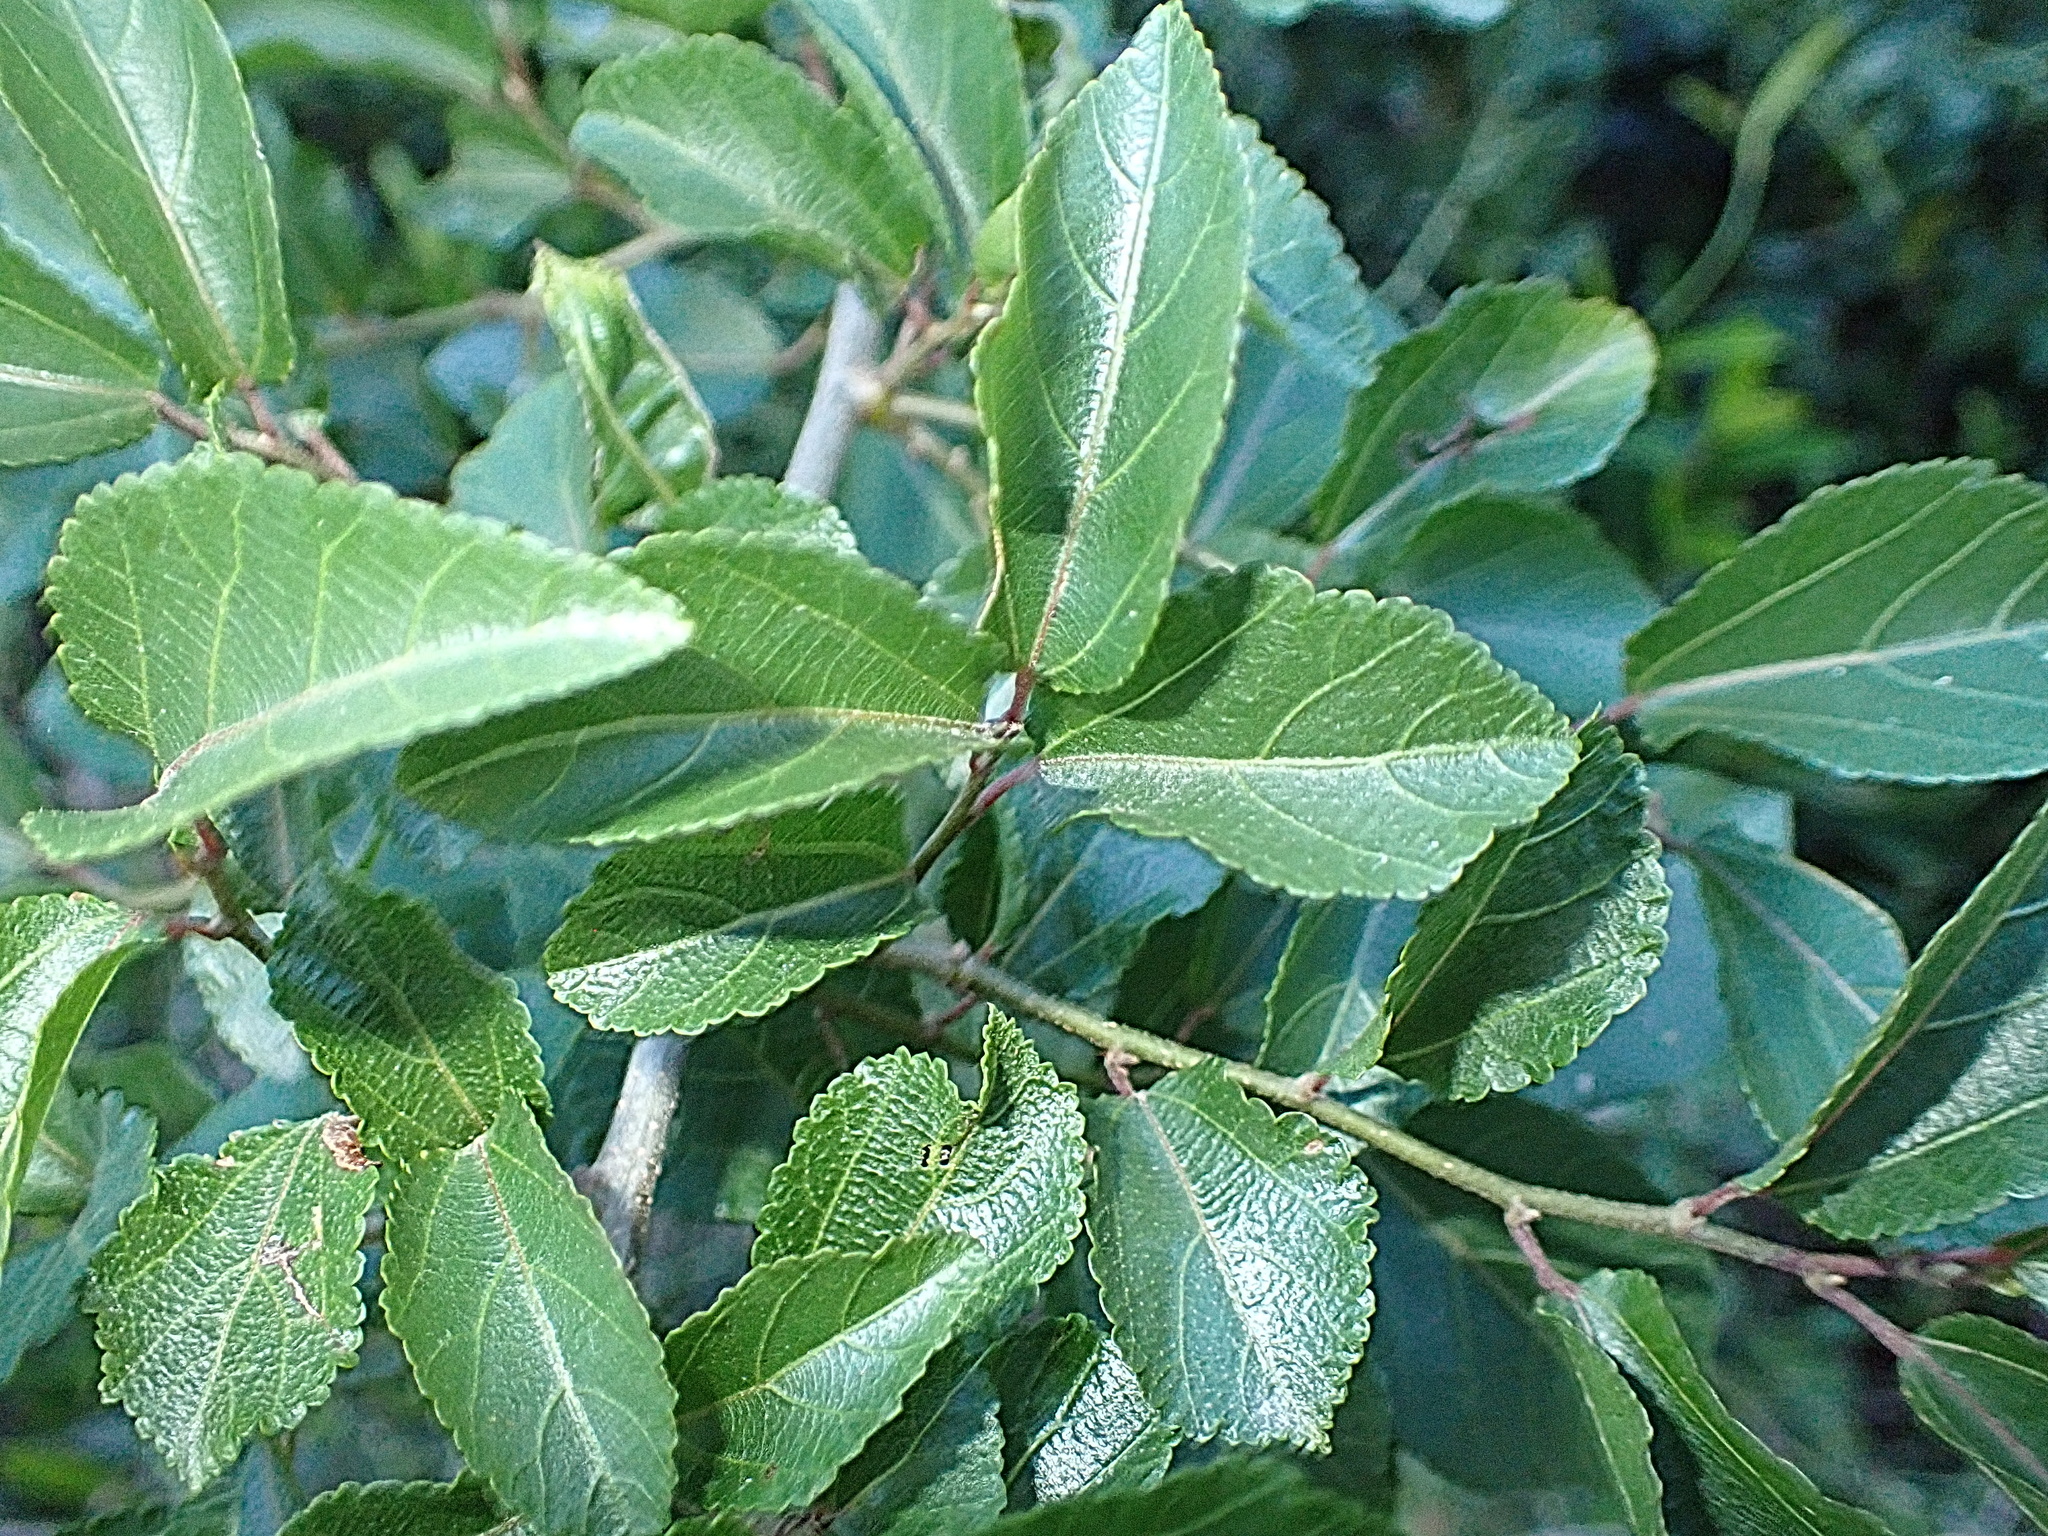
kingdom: Plantae
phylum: Tracheophyta
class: Magnoliopsida
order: Malvales
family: Malvaceae
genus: Grewia
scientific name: Grewia occidentalis
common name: Crossberry
